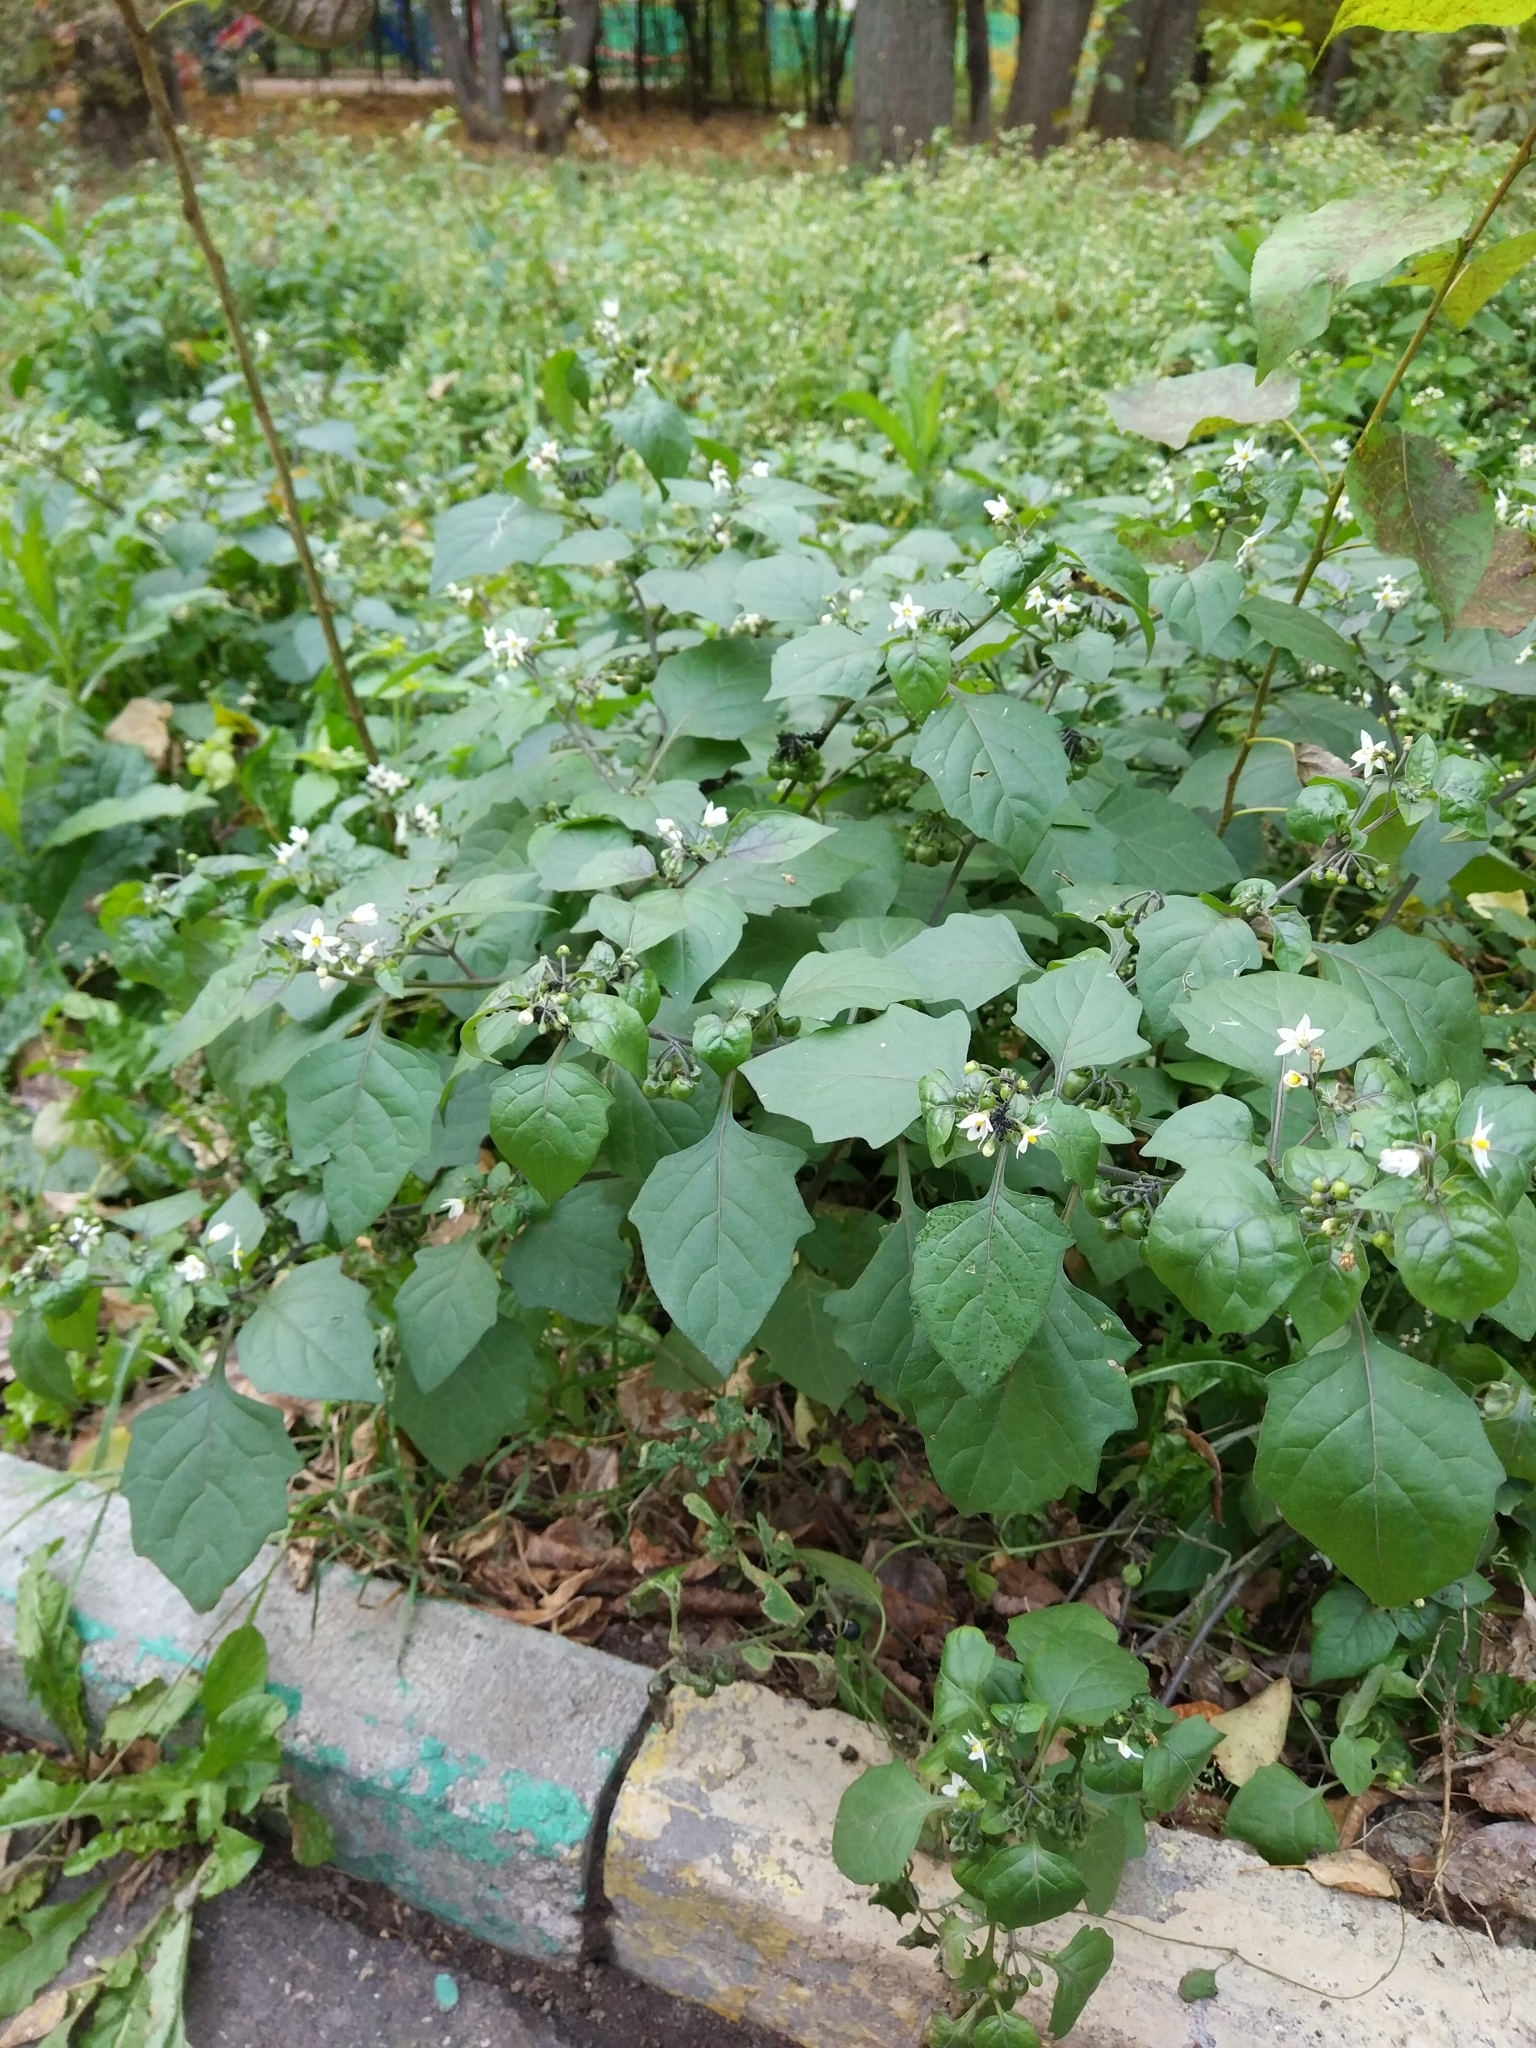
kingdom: Plantae
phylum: Tracheophyta
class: Magnoliopsida
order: Solanales
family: Solanaceae
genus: Solanum
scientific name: Solanum nigrum
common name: Black nightshade
